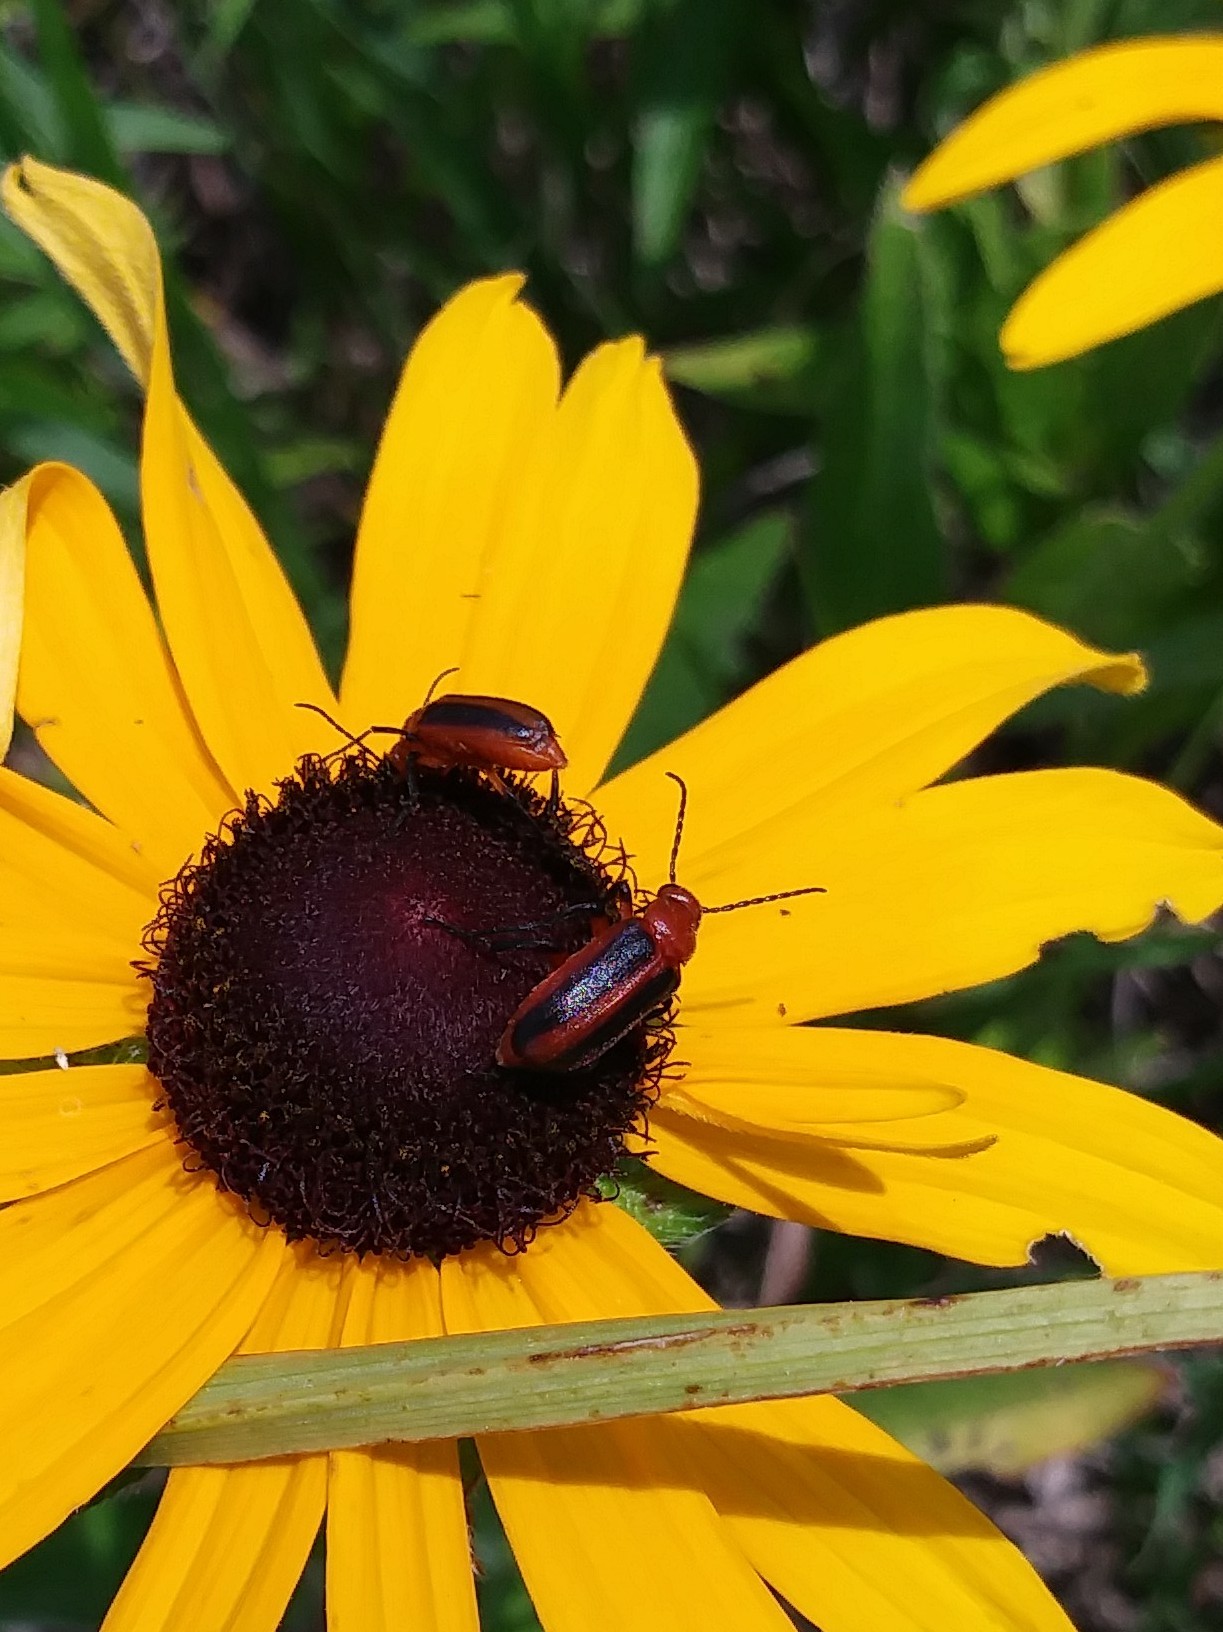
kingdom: Animalia
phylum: Arthropoda
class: Insecta
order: Coleoptera
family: Meloidae
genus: Zonitis
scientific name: Zonitis vittigera
